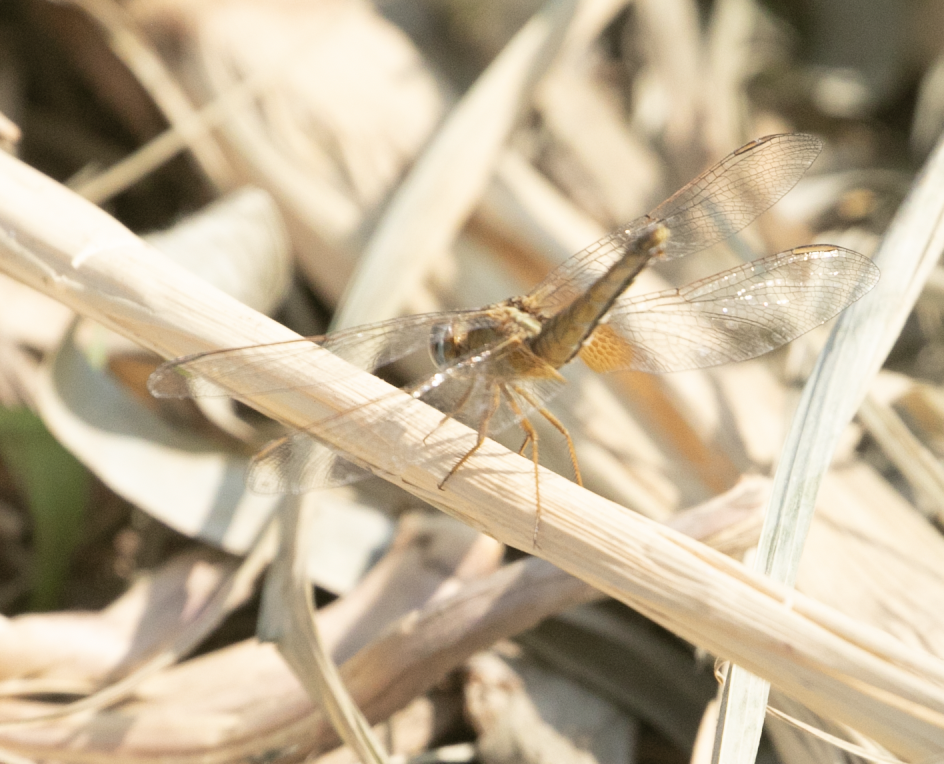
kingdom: Animalia
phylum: Arthropoda
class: Insecta
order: Odonata
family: Libellulidae
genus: Crocothemis
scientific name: Crocothemis erythraea
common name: Scarlet dragonfly
